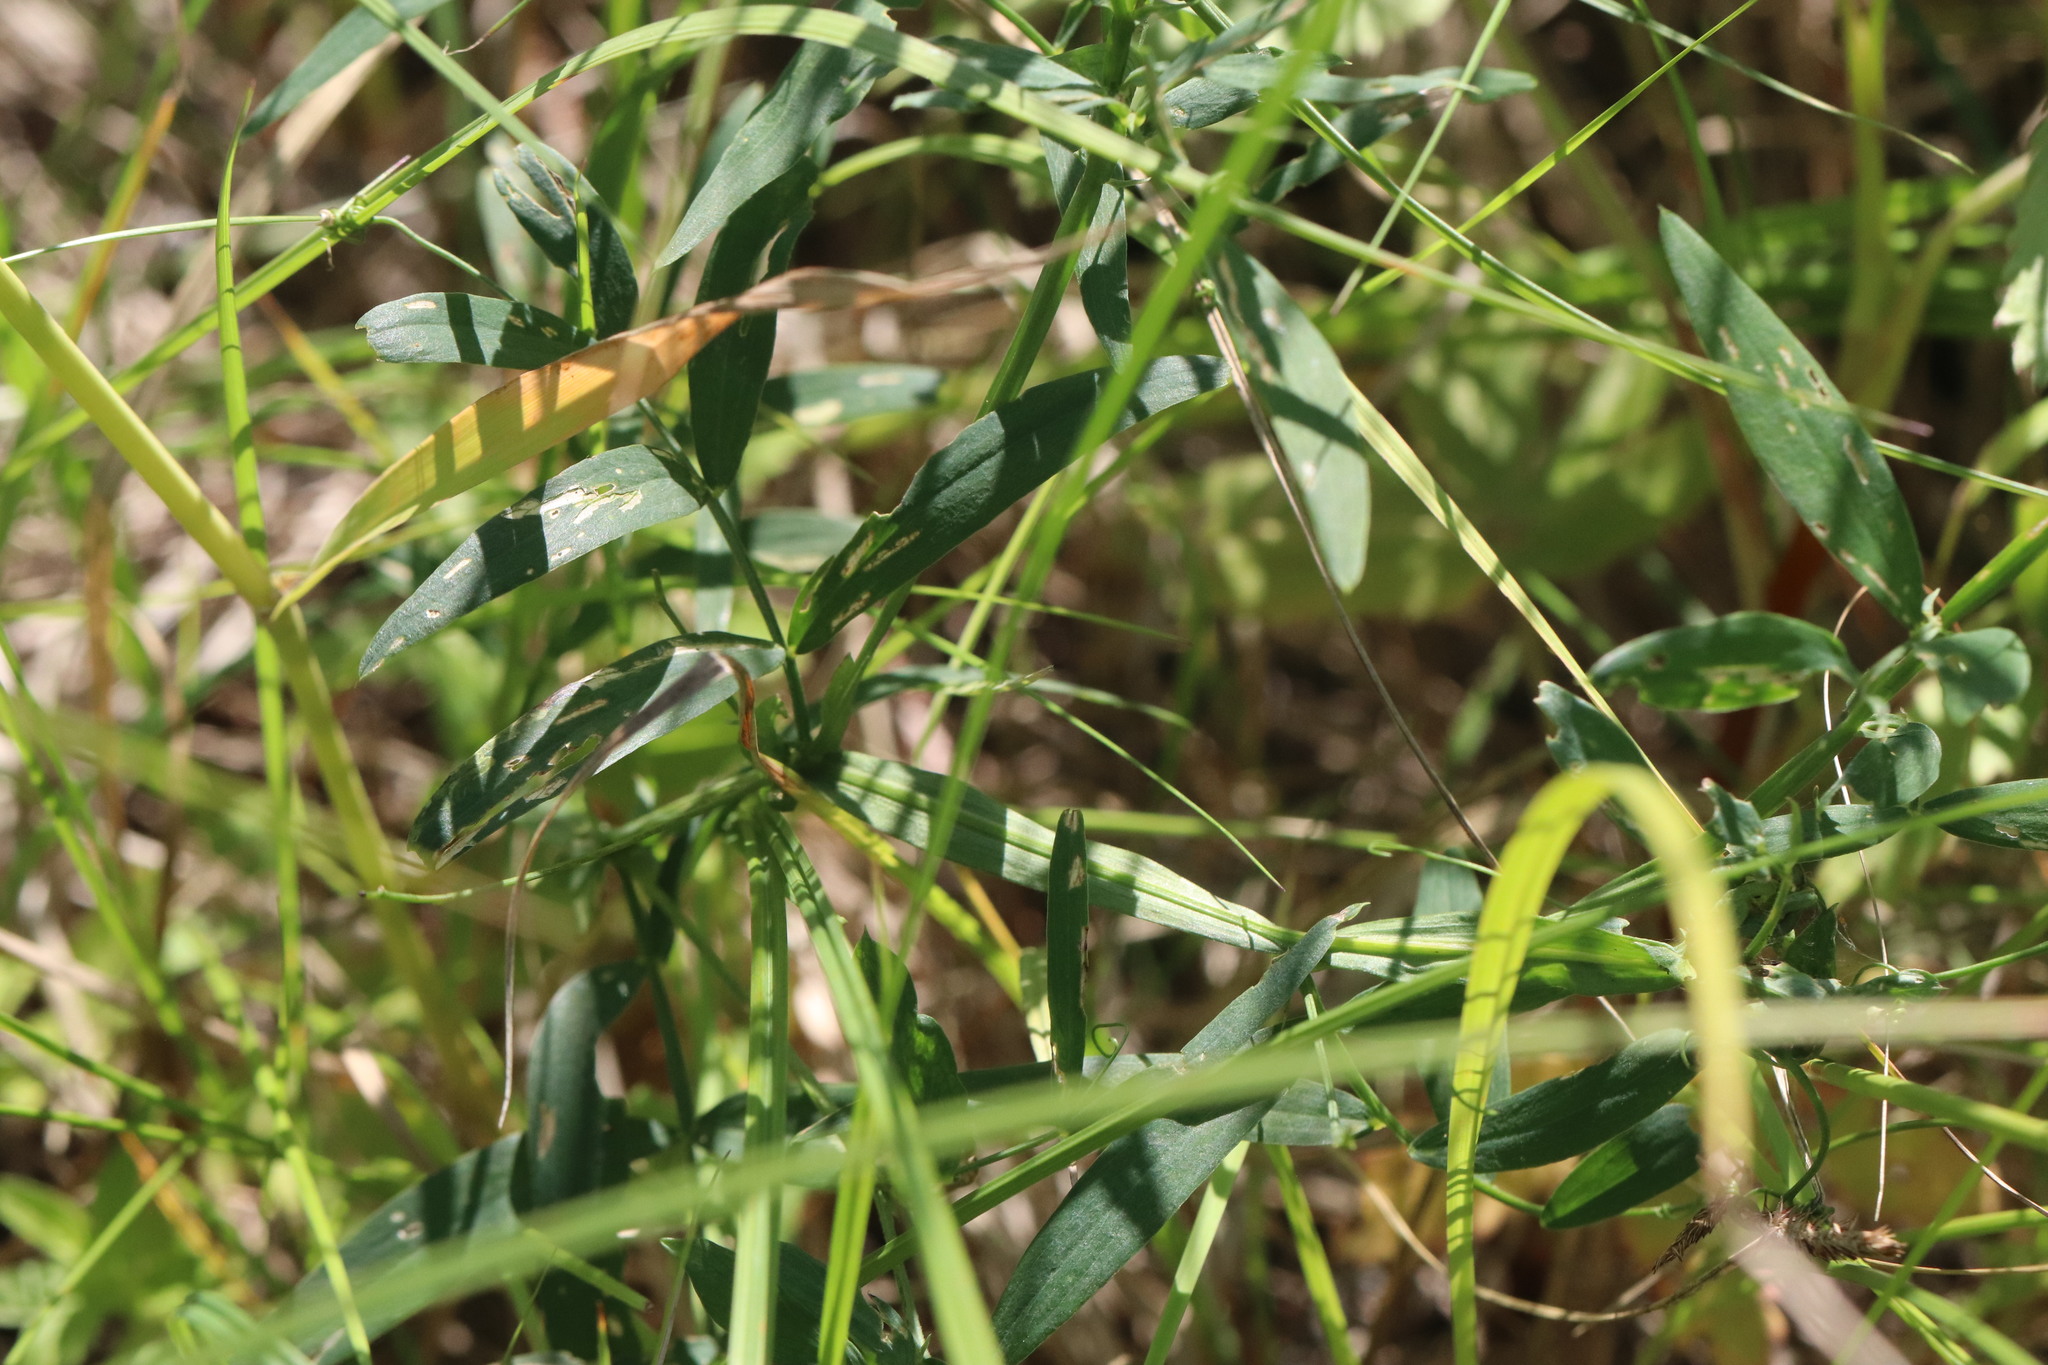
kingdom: Plantae
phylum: Tracheophyta
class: Magnoliopsida
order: Fabales
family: Fabaceae
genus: Lathyrus
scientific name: Lathyrus palustris
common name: Marsh pea
